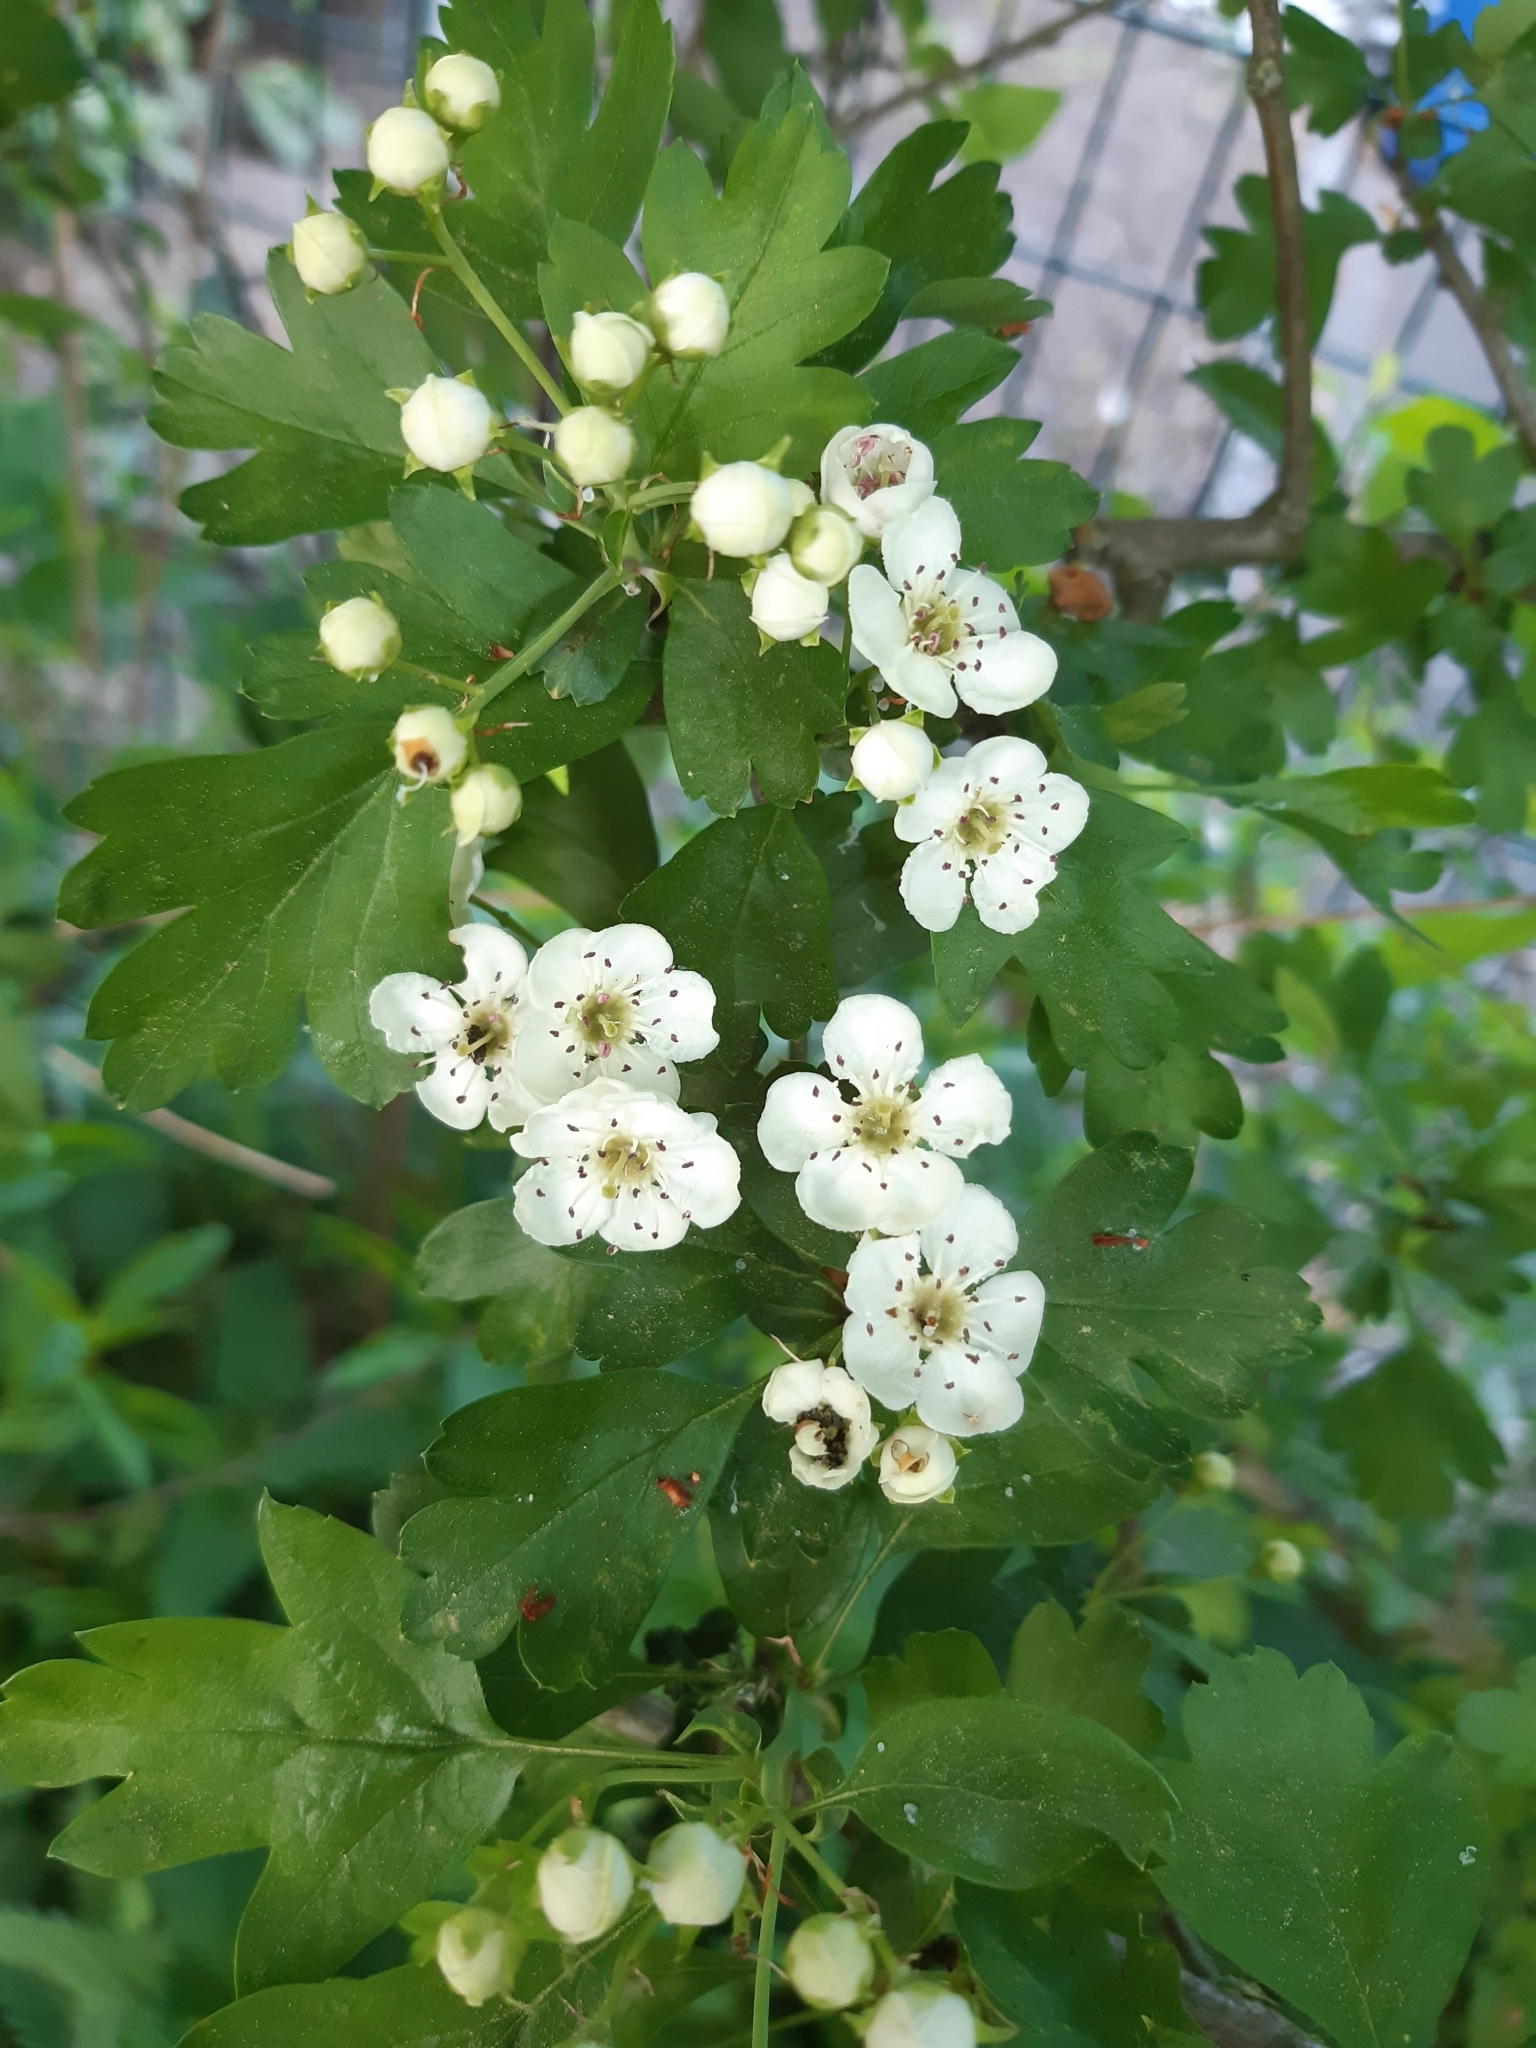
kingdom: Plantae
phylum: Tracheophyta
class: Magnoliopsida
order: Rosales
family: Rosaceae
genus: Crataegus
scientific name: Crataegus monogyna
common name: Hawthorn
